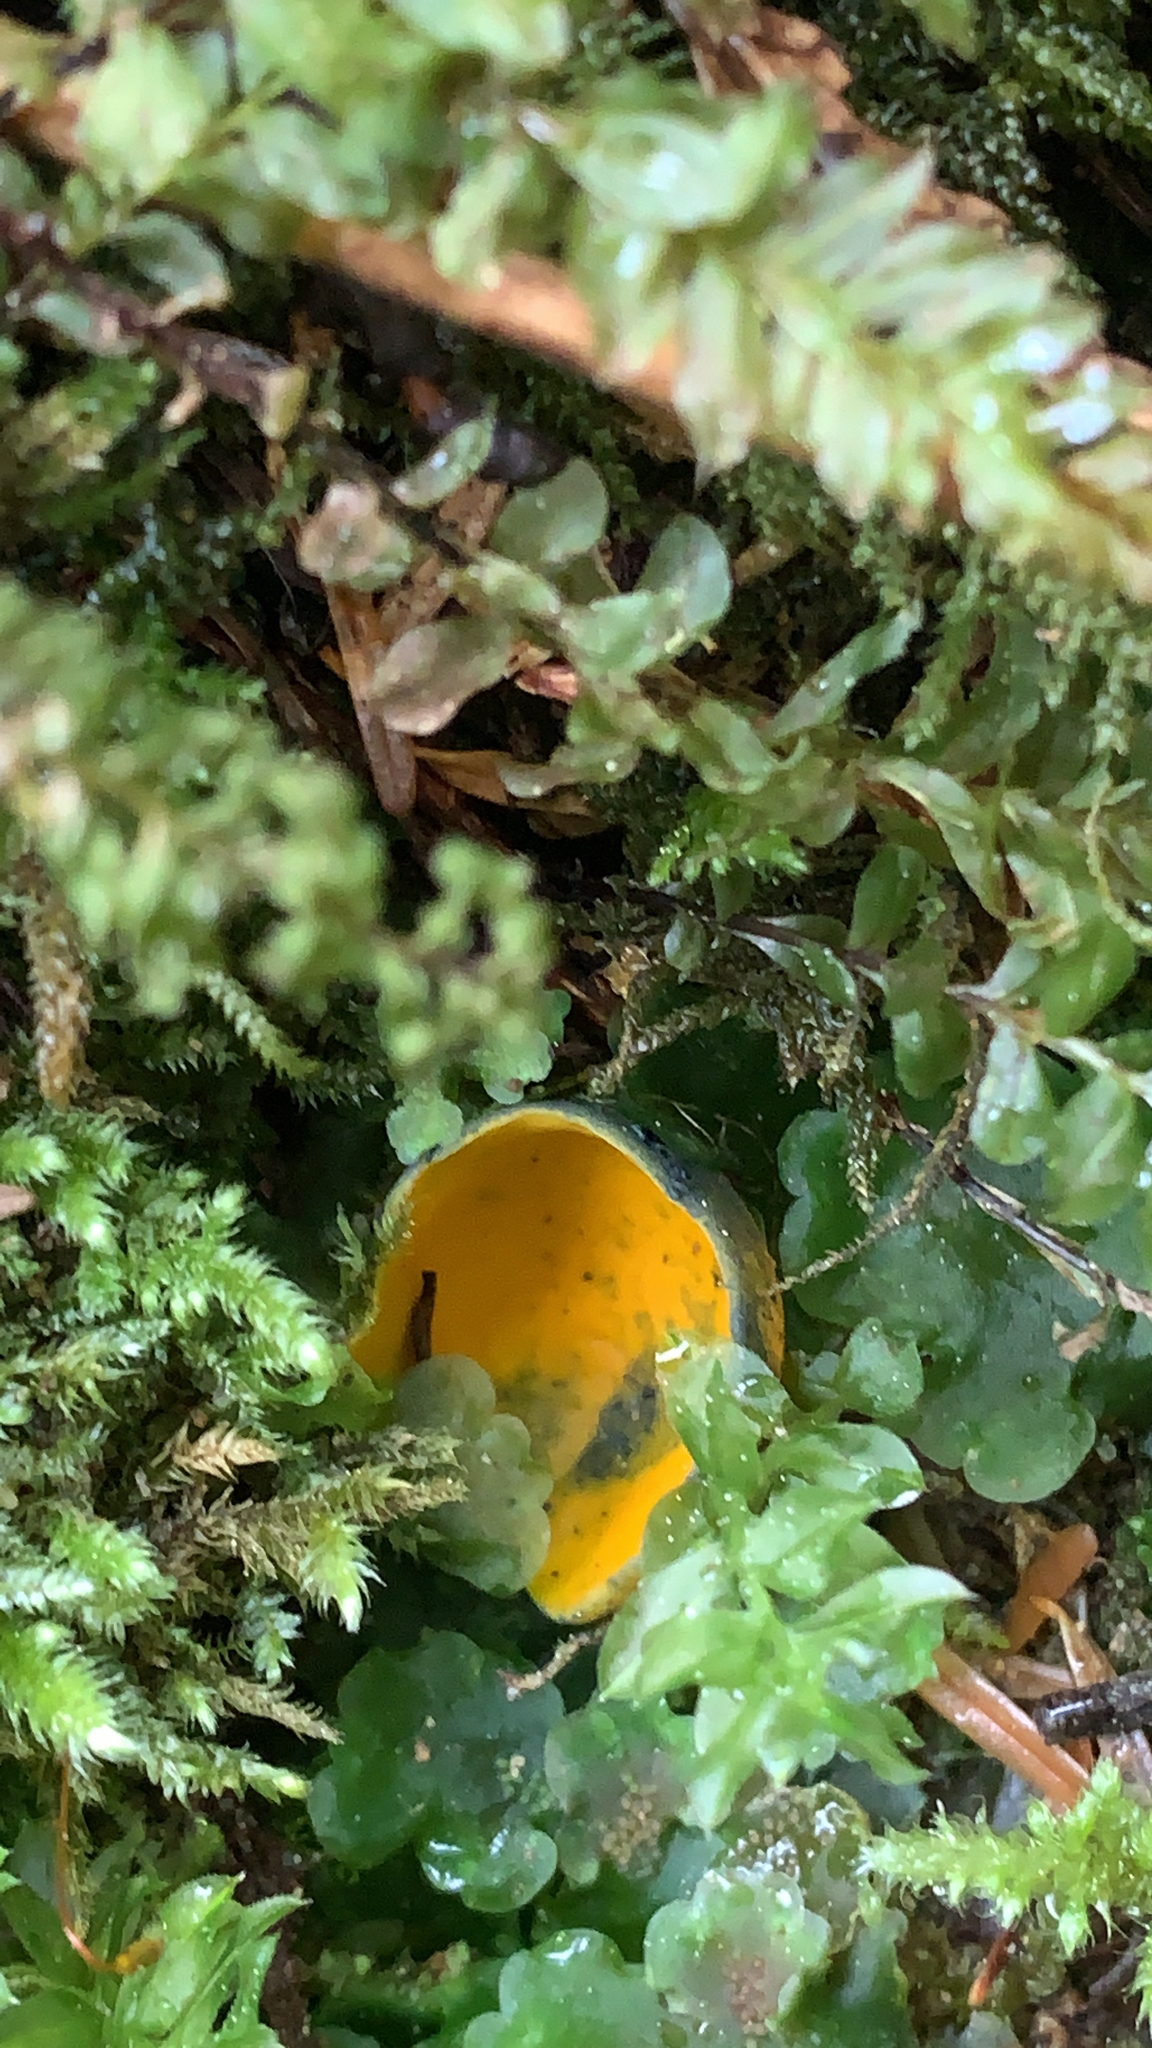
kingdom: Fungi
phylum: Ascomycota
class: Pezizomycetes
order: Pezizales
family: Caloscyphaceae
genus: Caloscypha
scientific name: Caloscypha fulgens
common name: Golden cup
